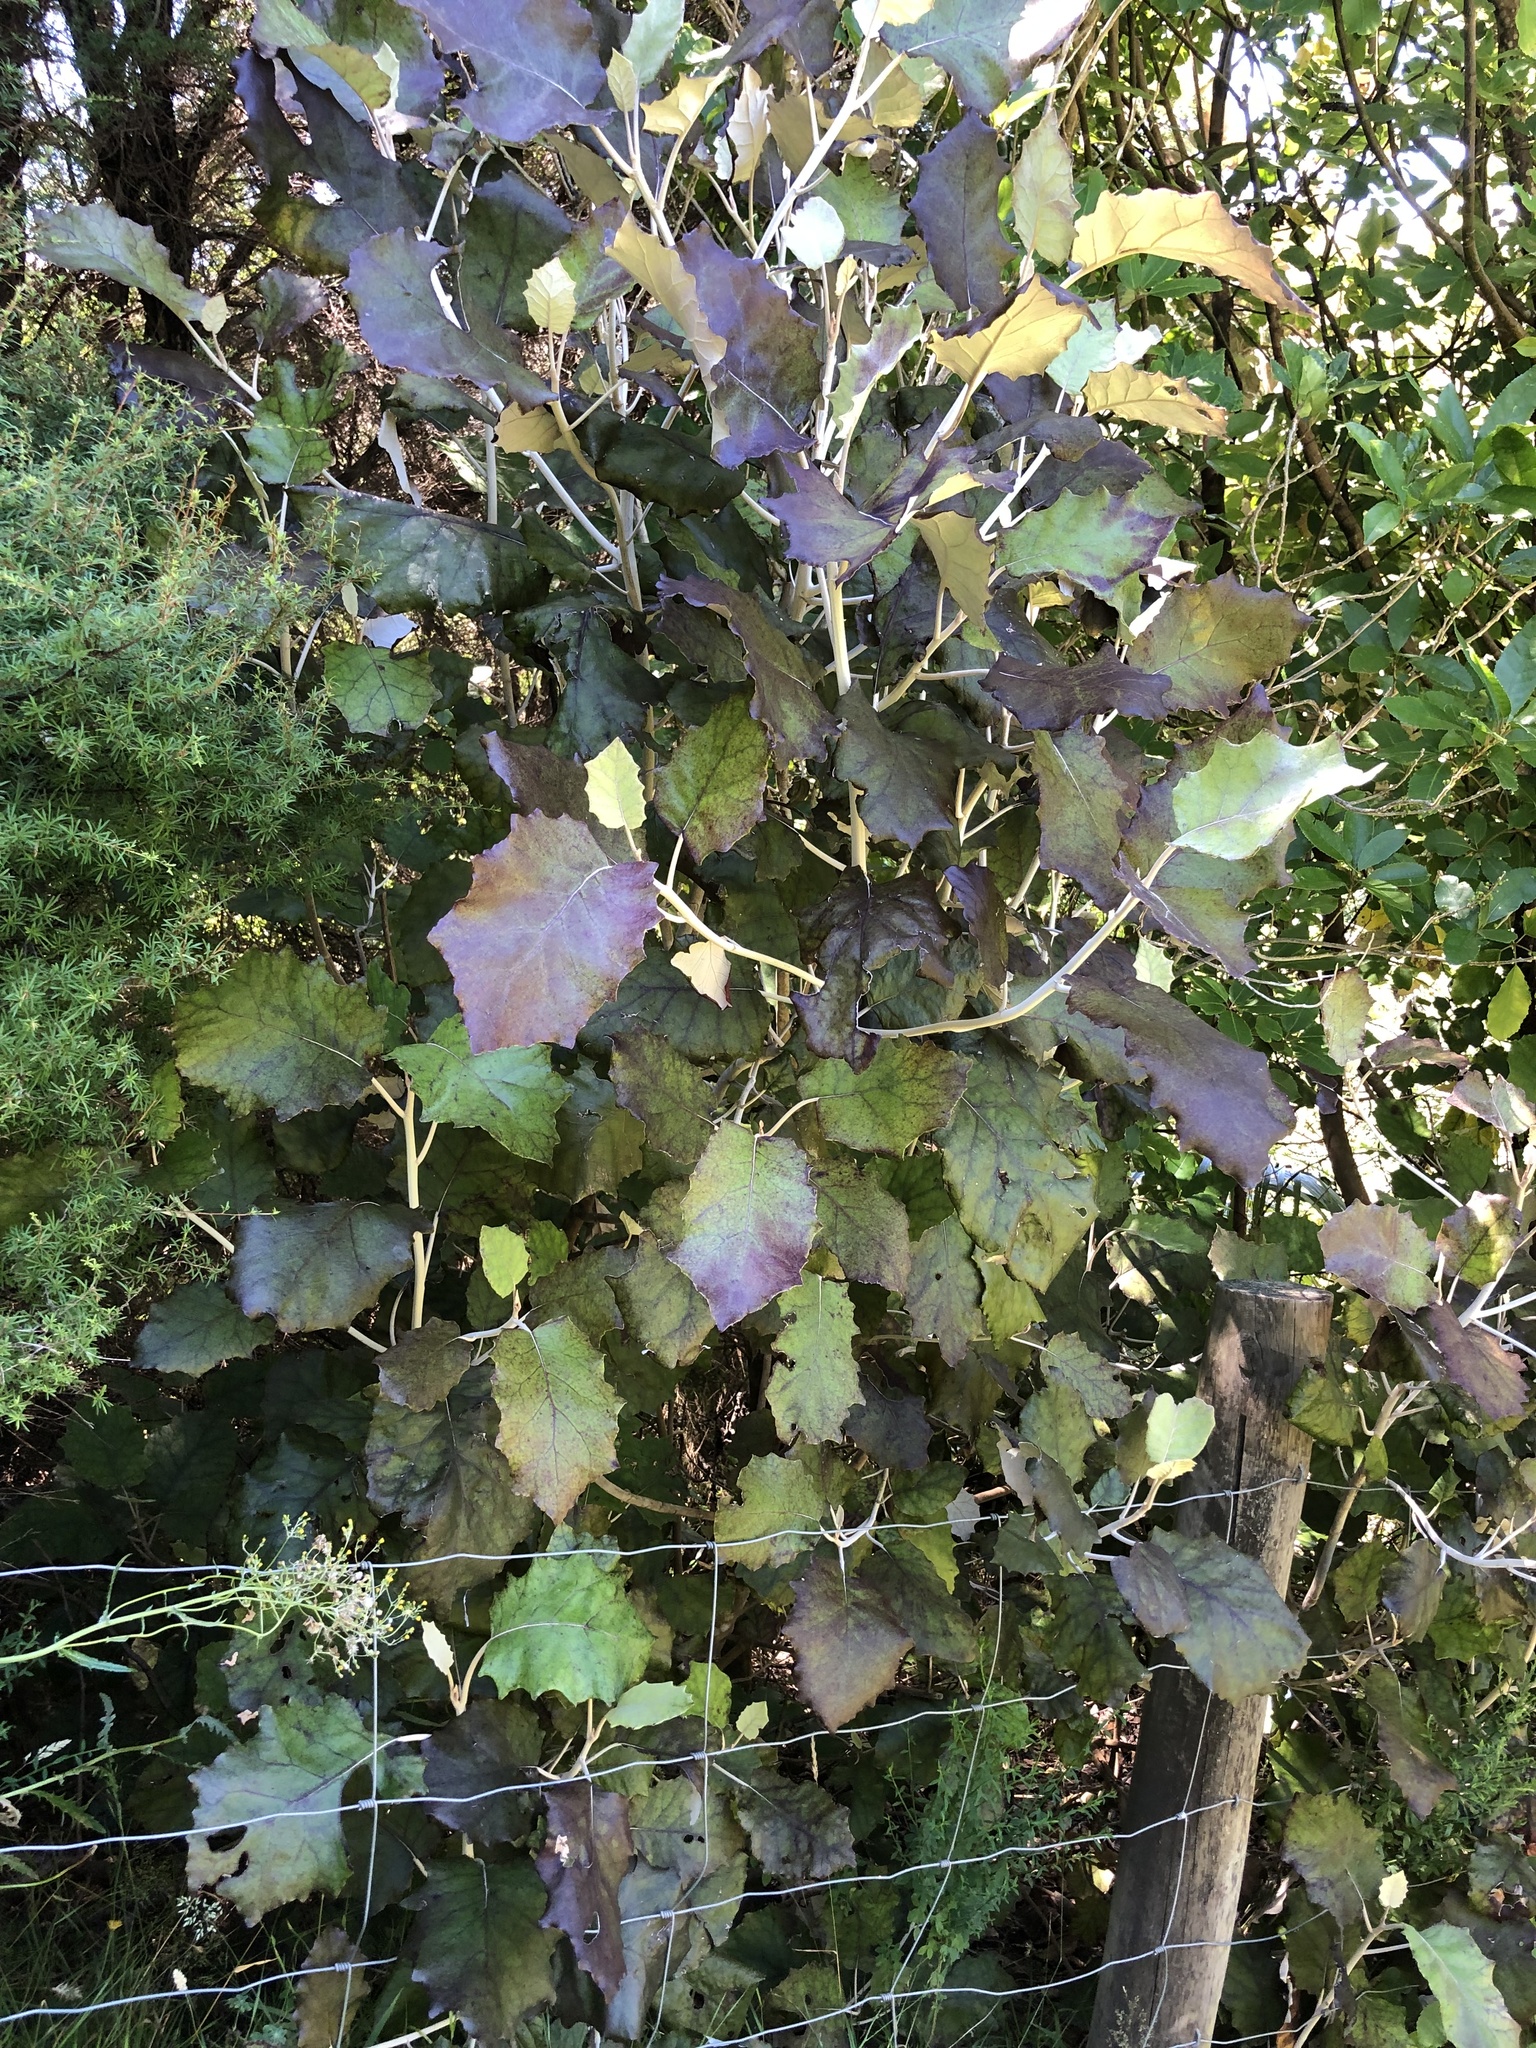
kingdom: Plantae
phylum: Tracheophyta
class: Magnoliopsida
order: Asterales
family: Asteraceae
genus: Brachyglottis
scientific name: Brachyglottis repanda
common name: Hedge ragwort
